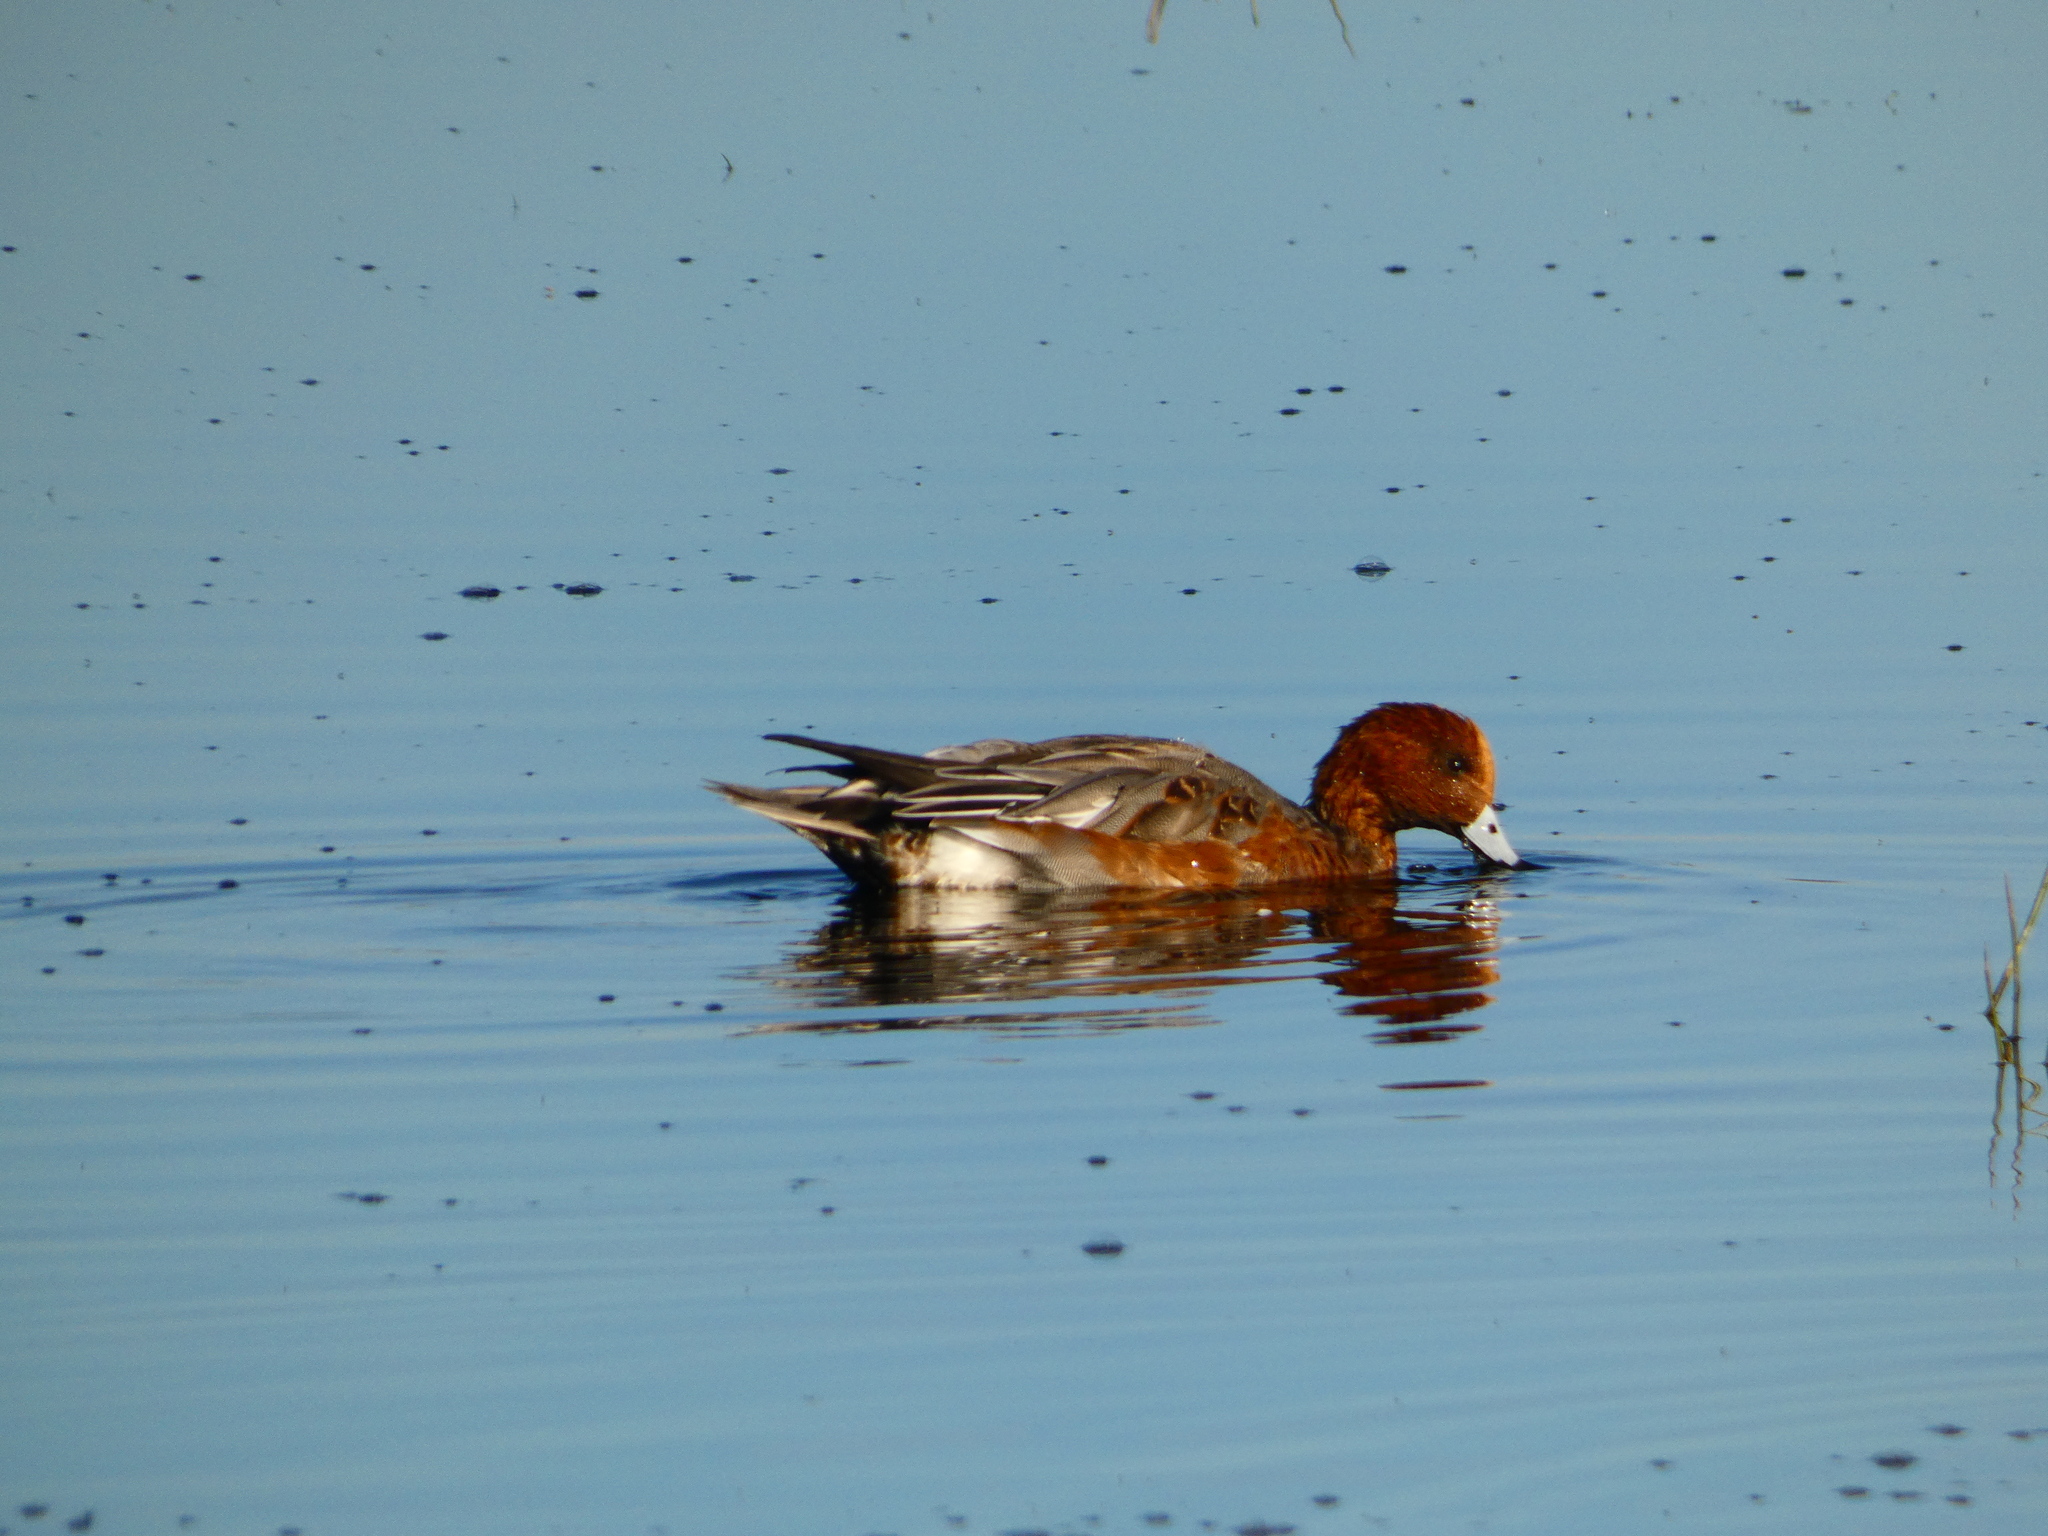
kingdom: Animalia
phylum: Chordata
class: Aves
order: Anseriformes
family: Anatidae
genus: Mareca
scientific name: Mareca penelope
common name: Eurasian wigeon
